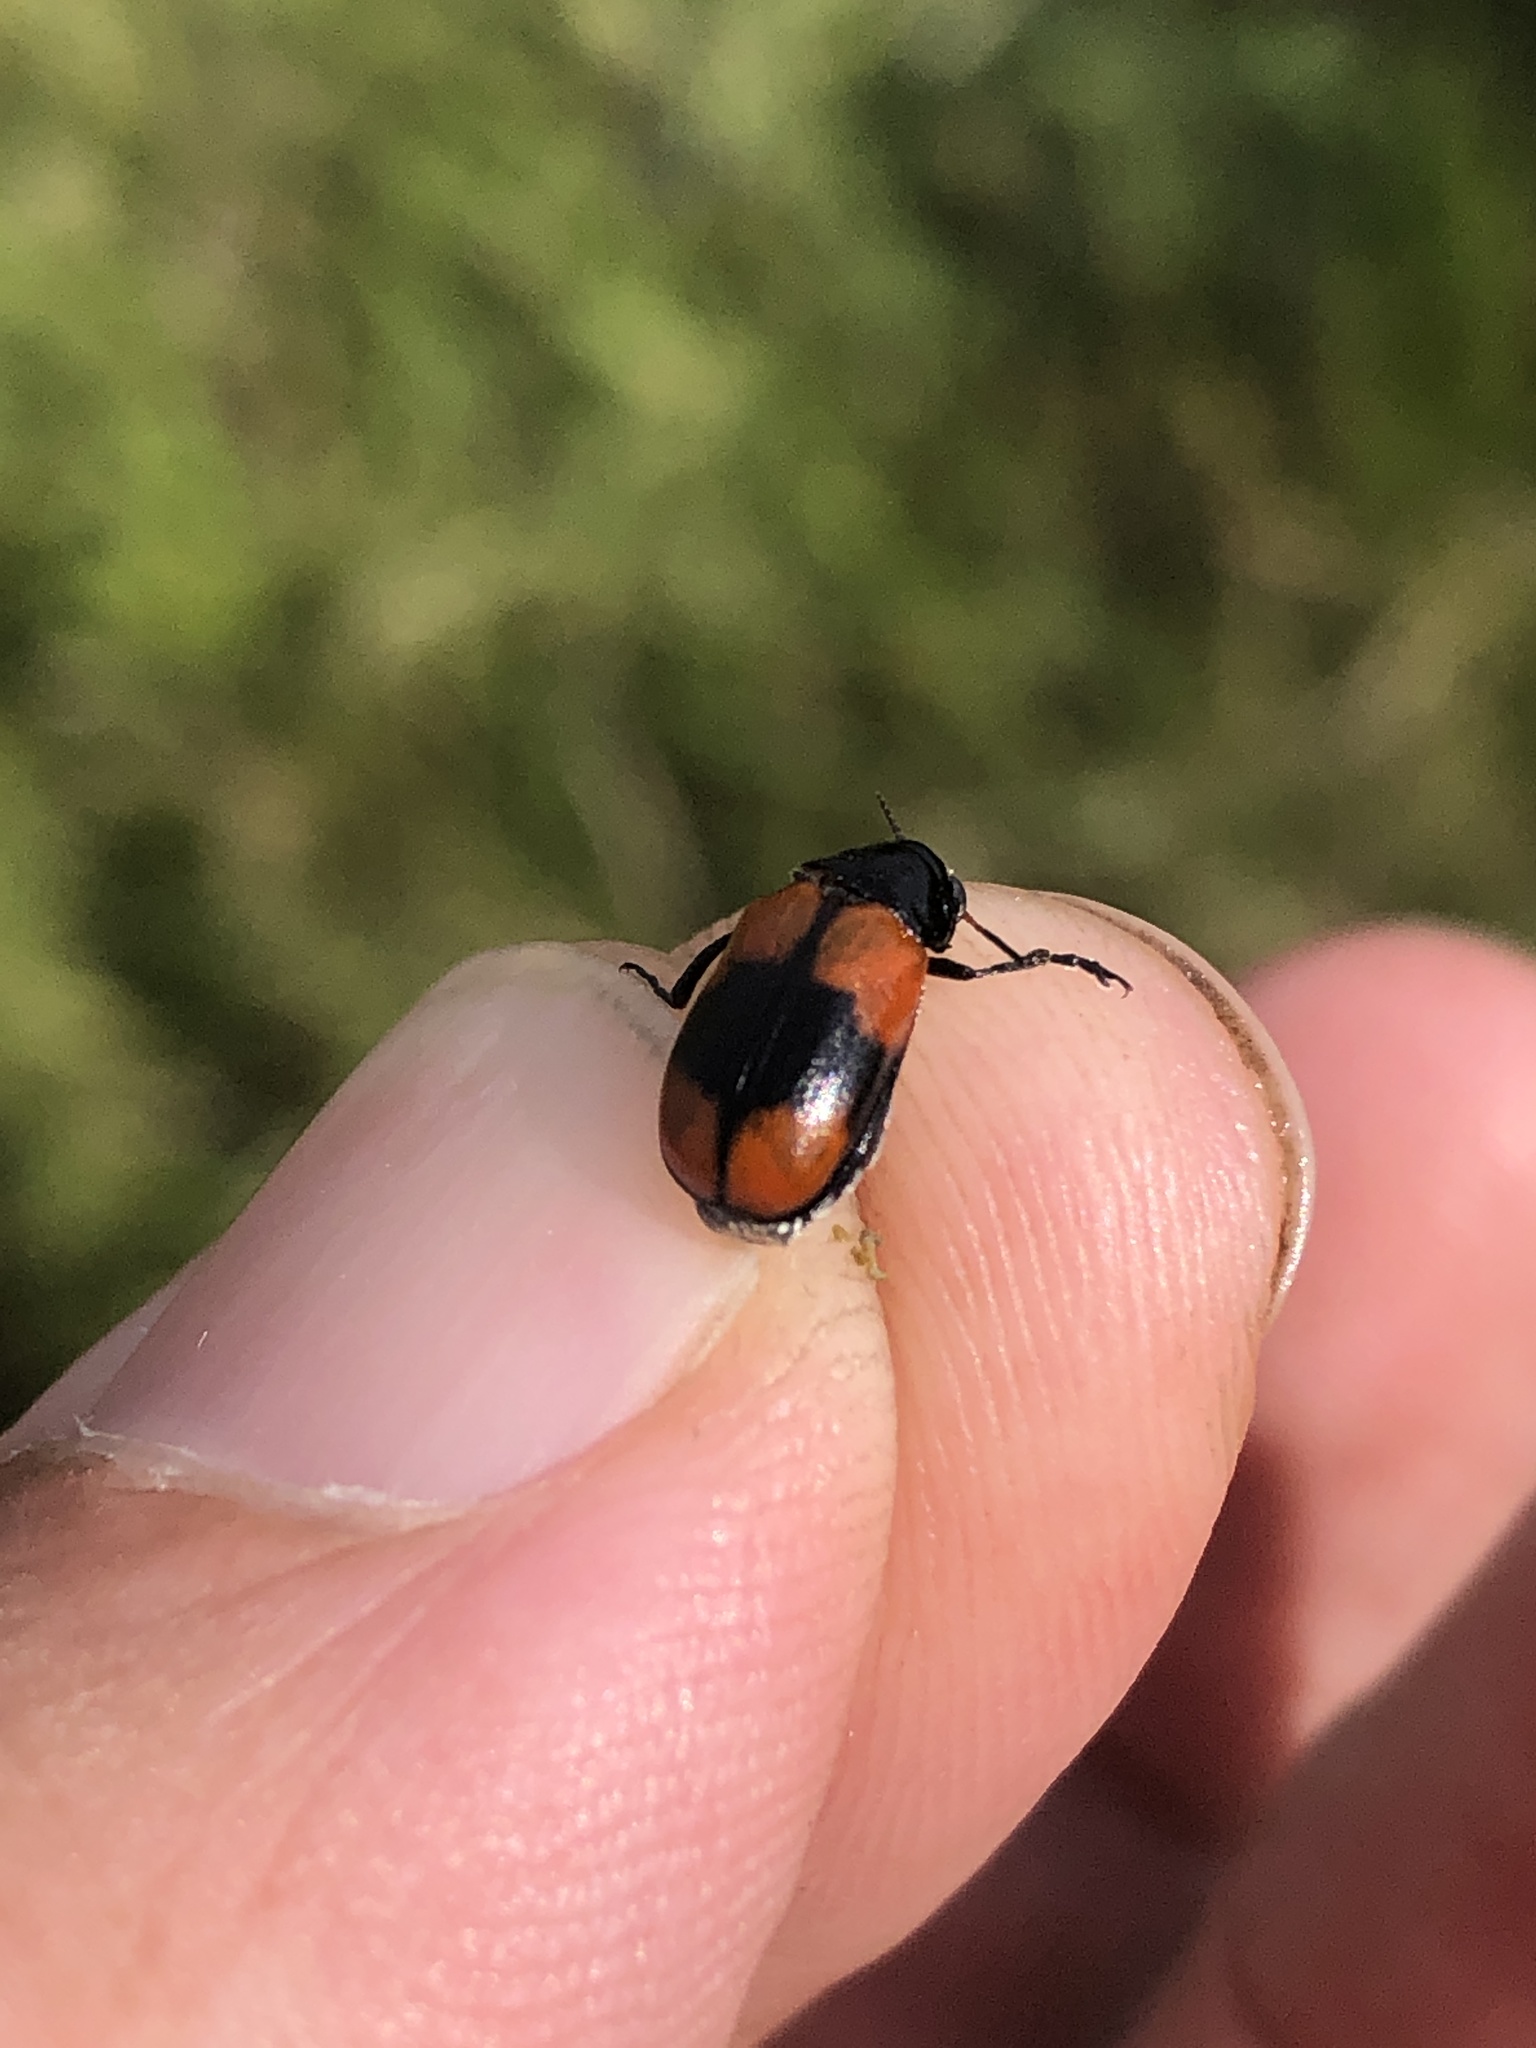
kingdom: Animalia
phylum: Arthropoda
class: Insecta
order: Coleoptera
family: Chrysomelidae
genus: Anomoea
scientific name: Anomoea rufifrons
